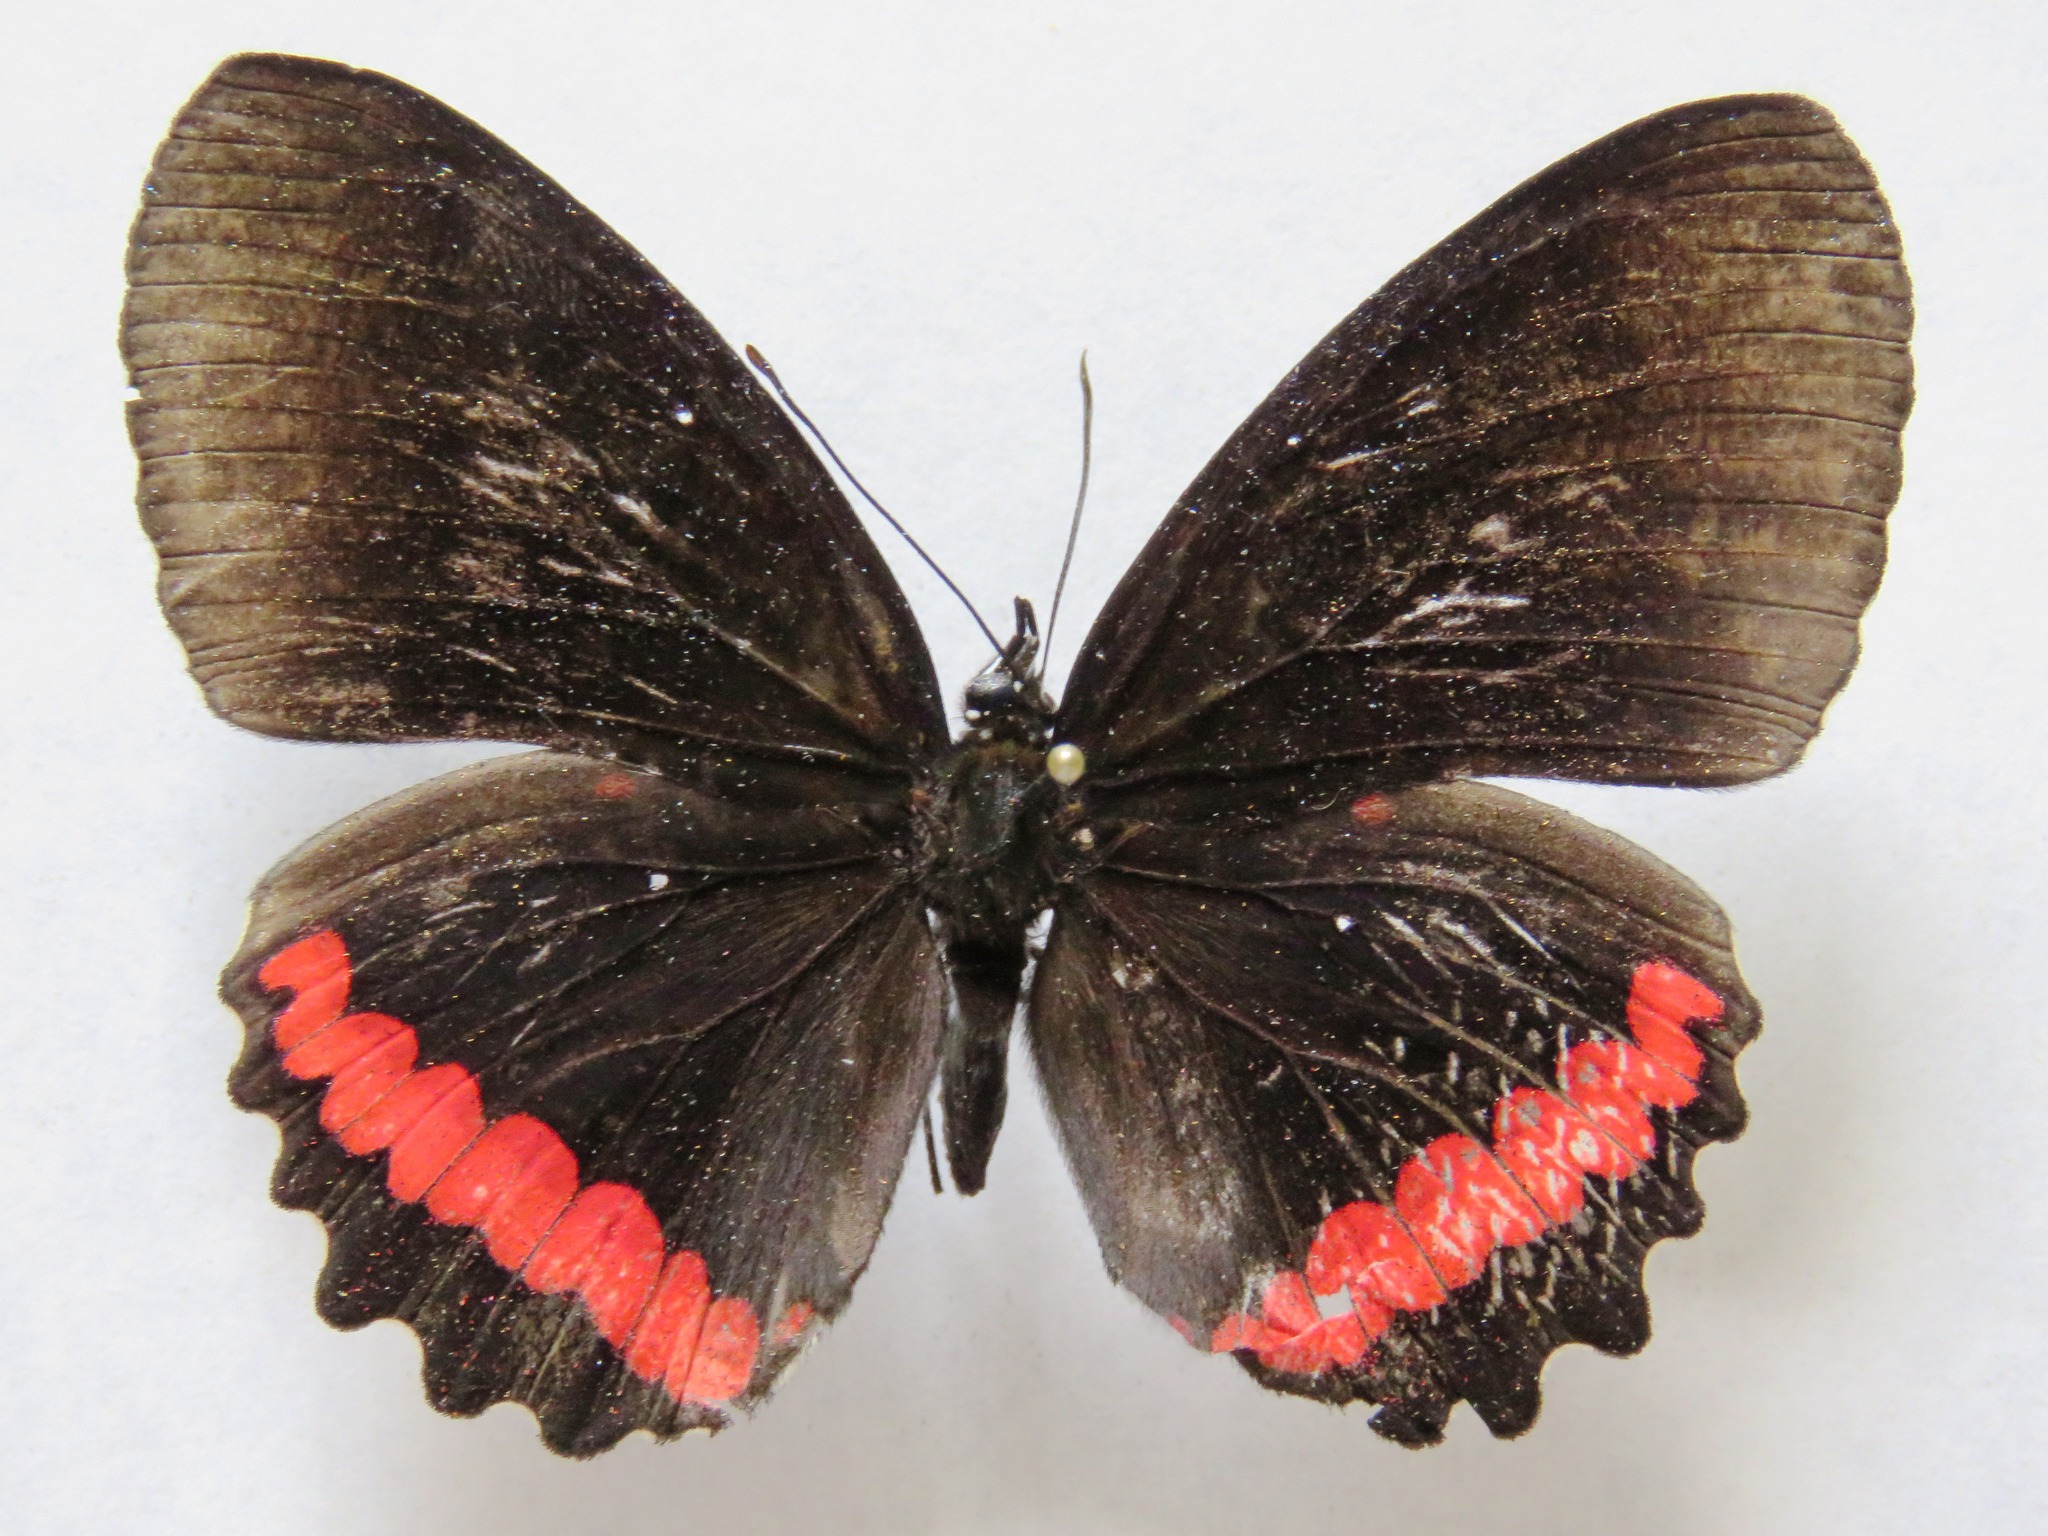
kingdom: Animalia
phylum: Arthropoda
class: Insecta
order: Lepidoptera
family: Nymphalidae
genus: Biblis
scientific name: Biblis aganisa
